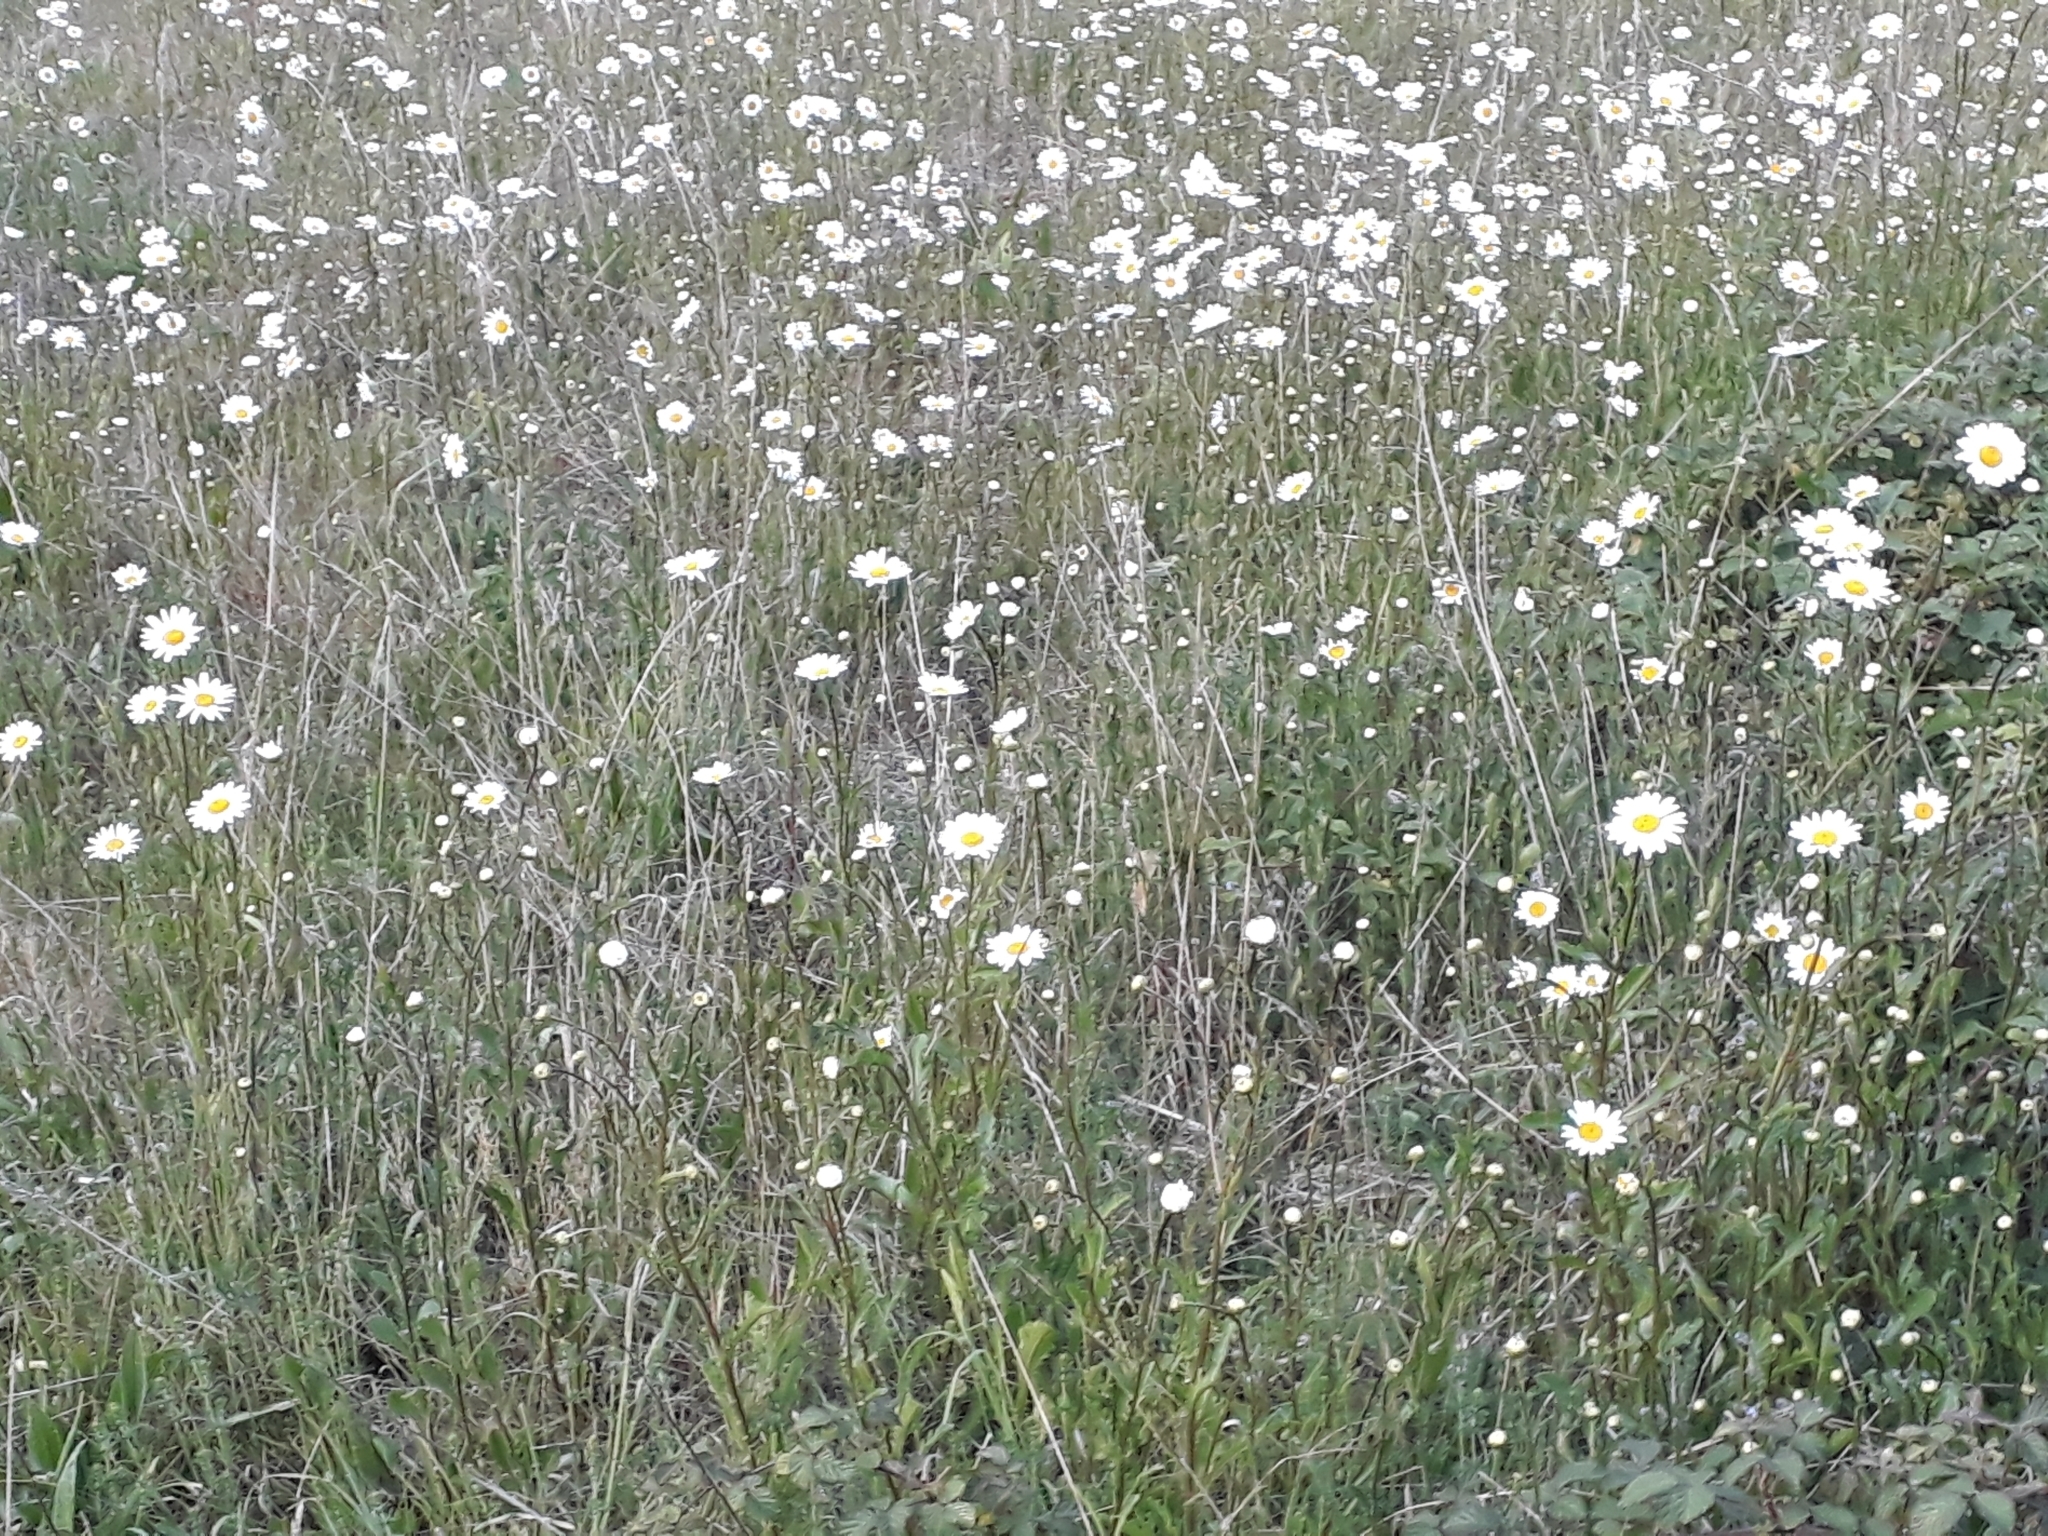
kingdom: Plantae
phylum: Tracheophyta
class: Magnoliopsida
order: Asterales
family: Asteraceae
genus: Leucanthemum
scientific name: Leucanthemum vulgare
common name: Oxeye daisy
